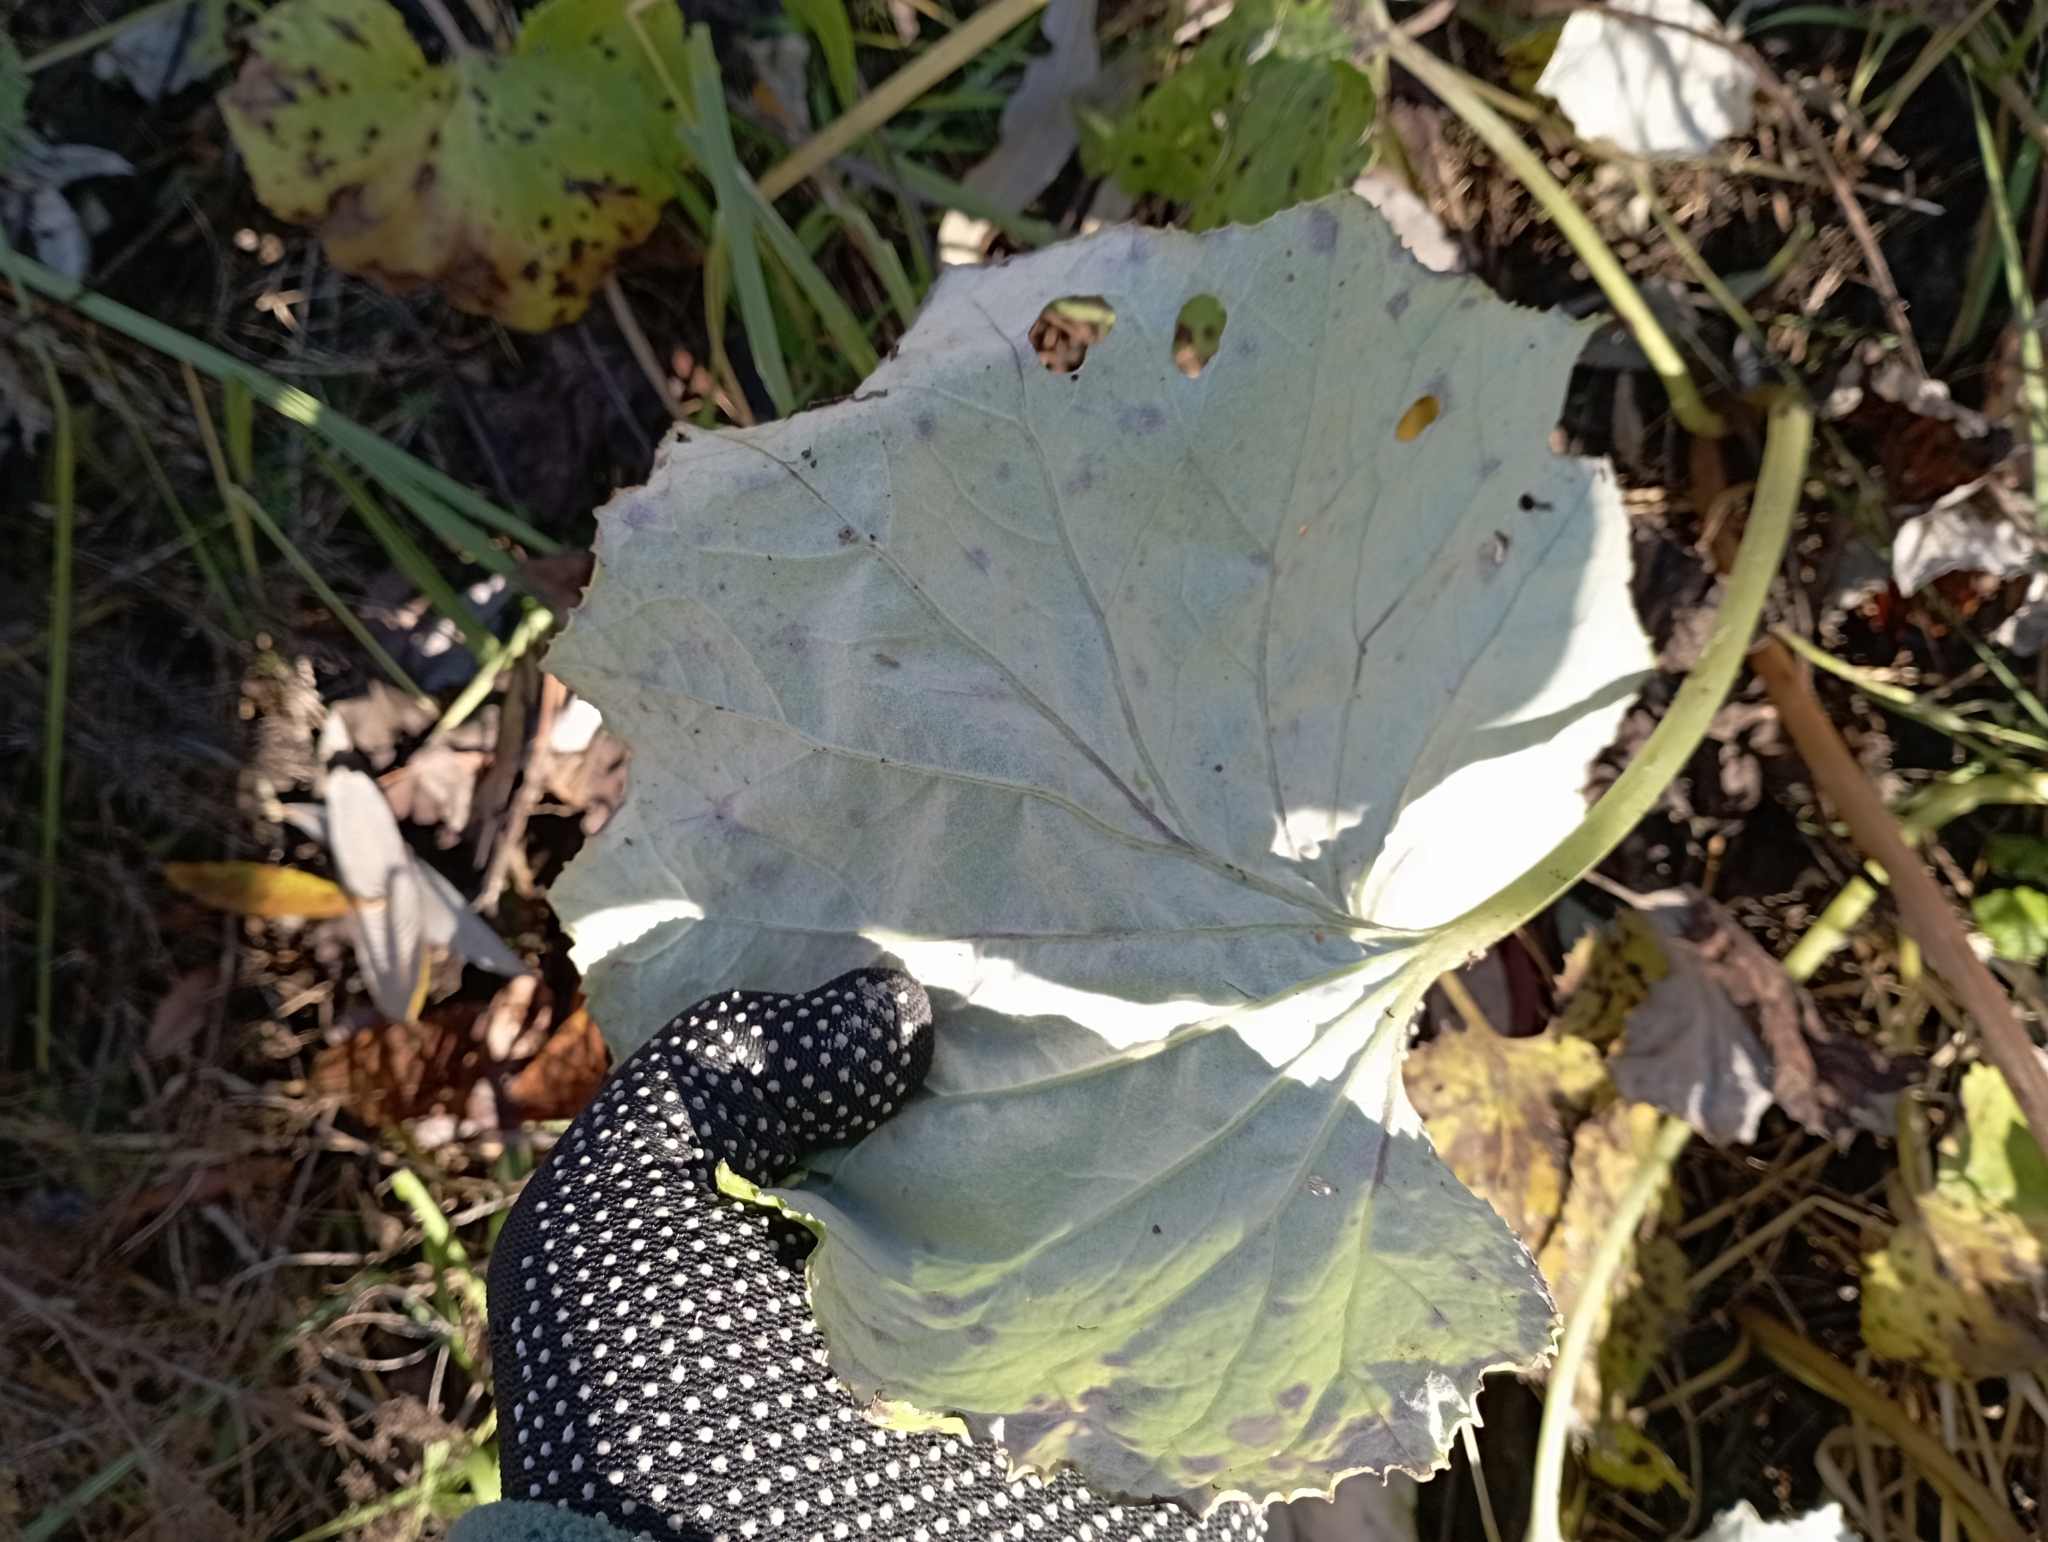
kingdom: Plantae
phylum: Tracheophyta
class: Magnoliopsida
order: Asterales
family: Asteraceae
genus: Petasites
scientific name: Petasites spurius
